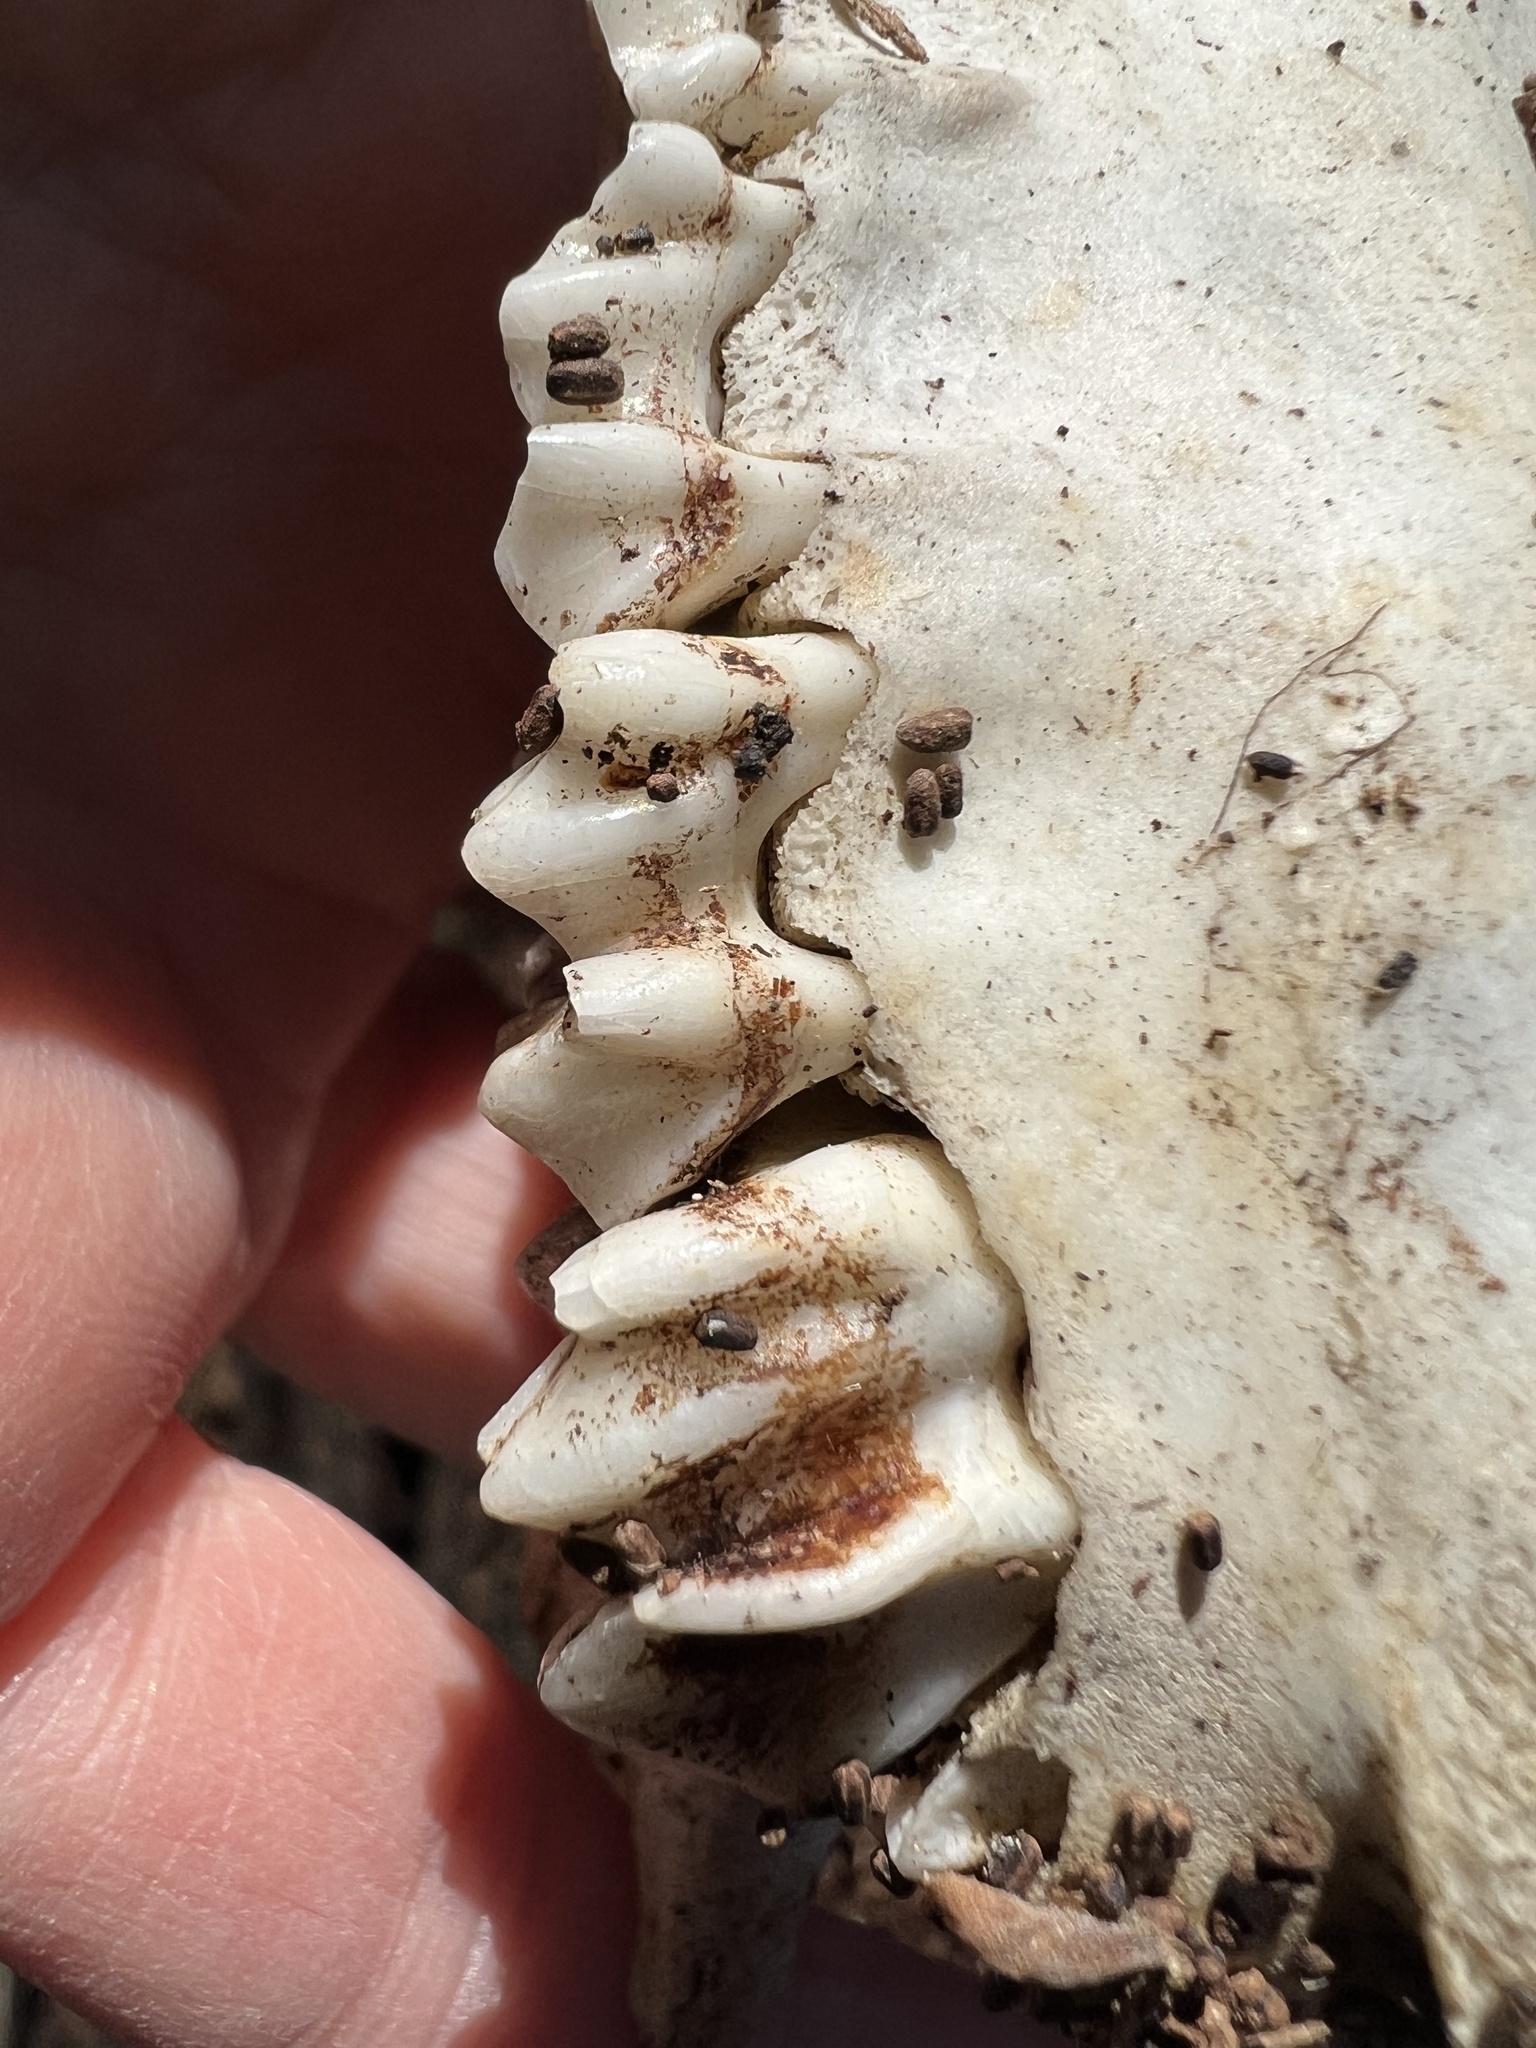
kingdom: Animalia
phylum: Chordata
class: Mammalia
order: Artiodactyla
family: Cervidae
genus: Odocoileus
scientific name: Odocoileus hemionus
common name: Mule deer
